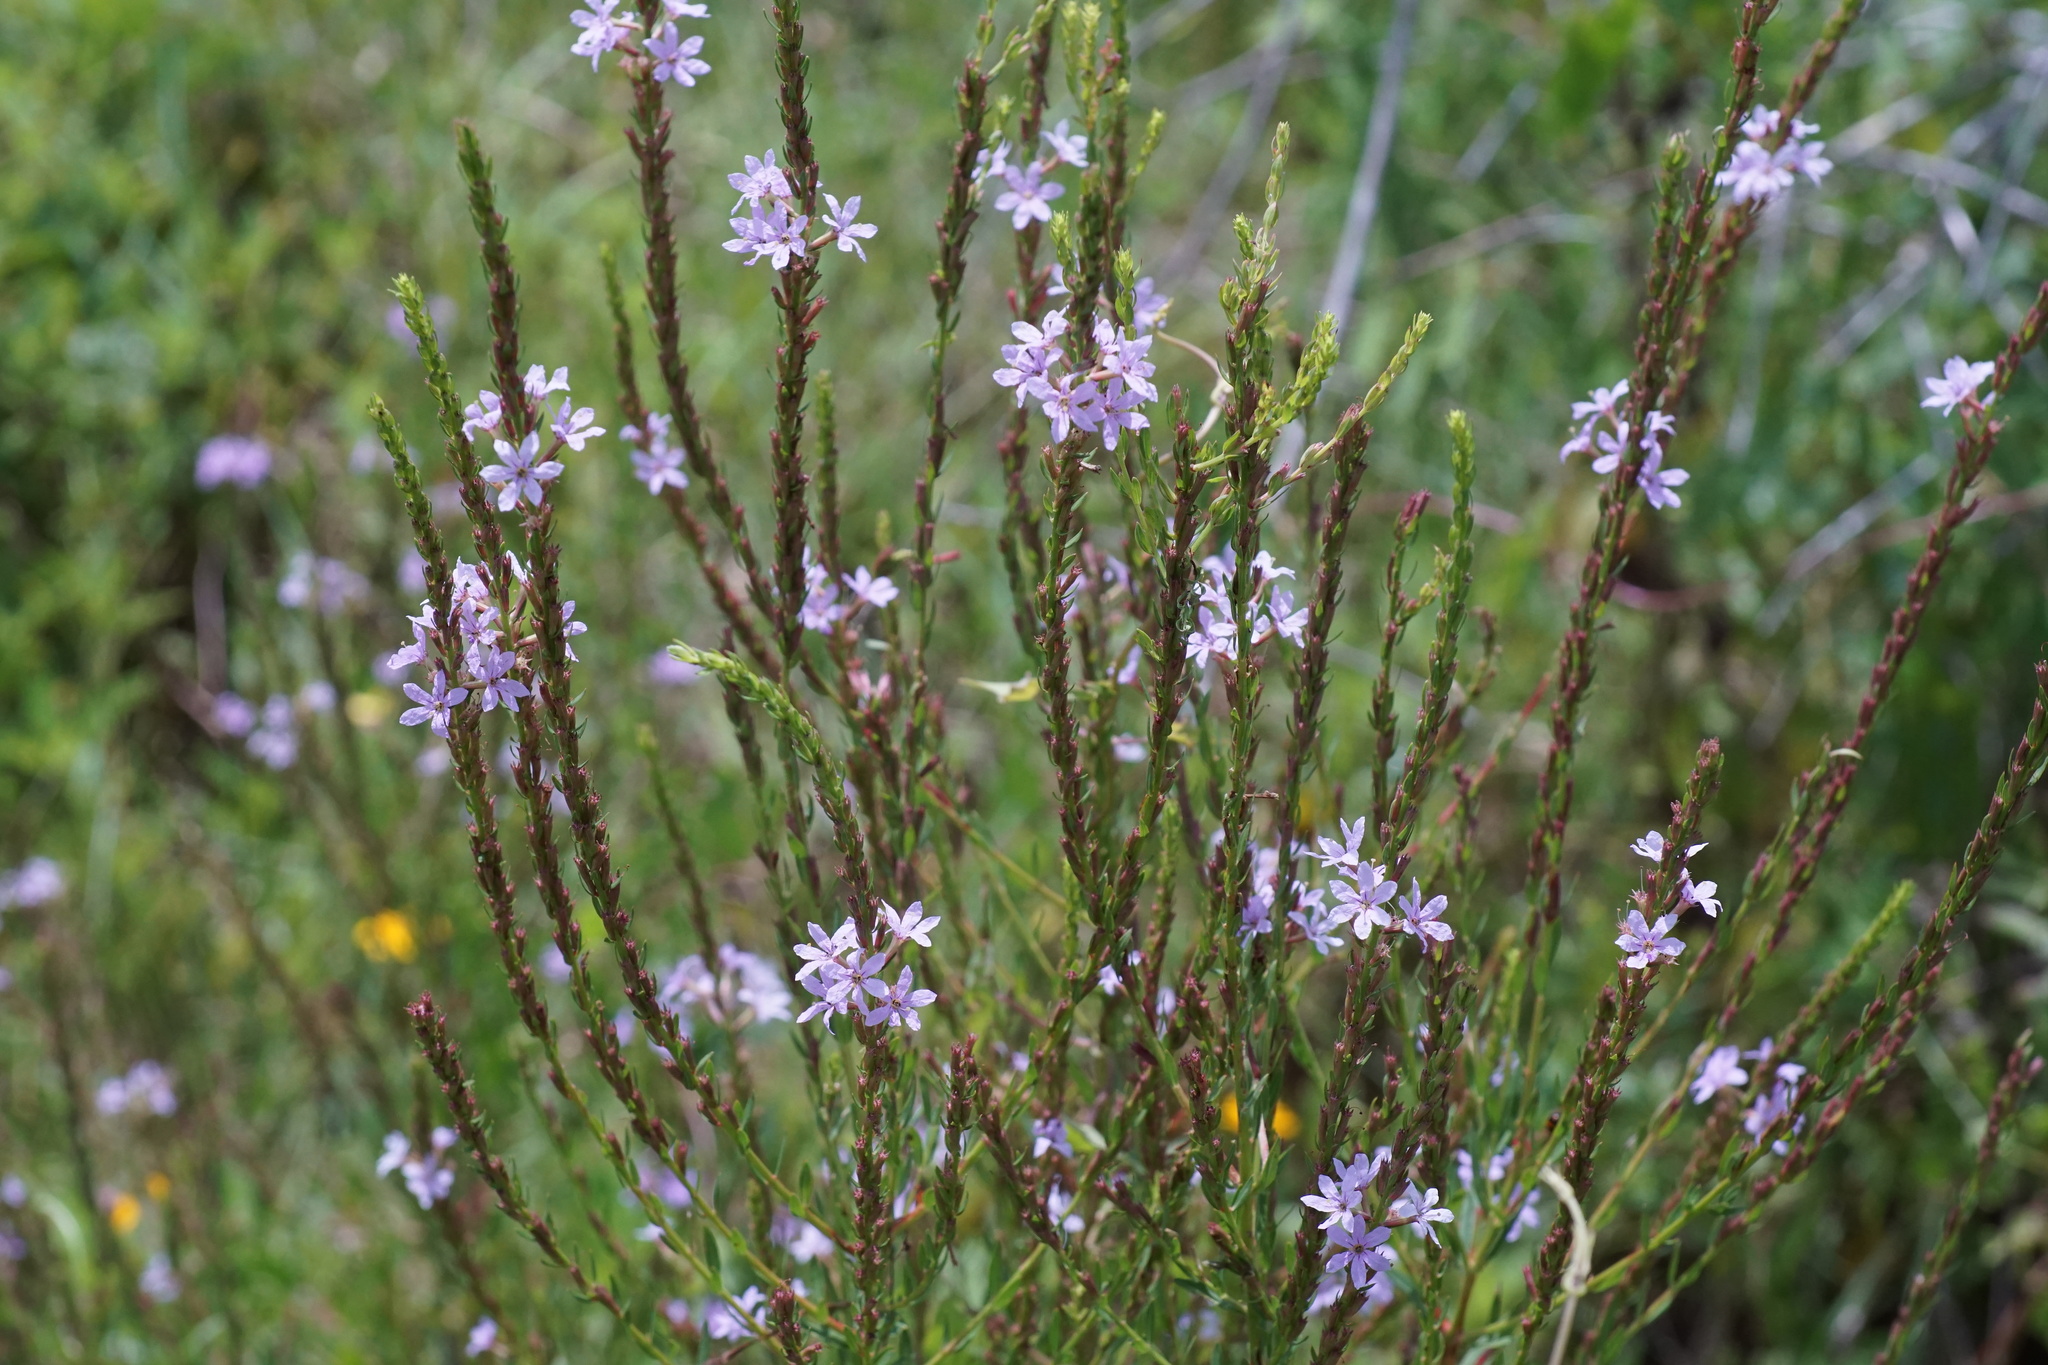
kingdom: Plantae
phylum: Tracheophyta
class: Magnoliopsida
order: Myrtales
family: Lythraceae
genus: Lythrum
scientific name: Lythrum alatum
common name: Winged loosestrife
